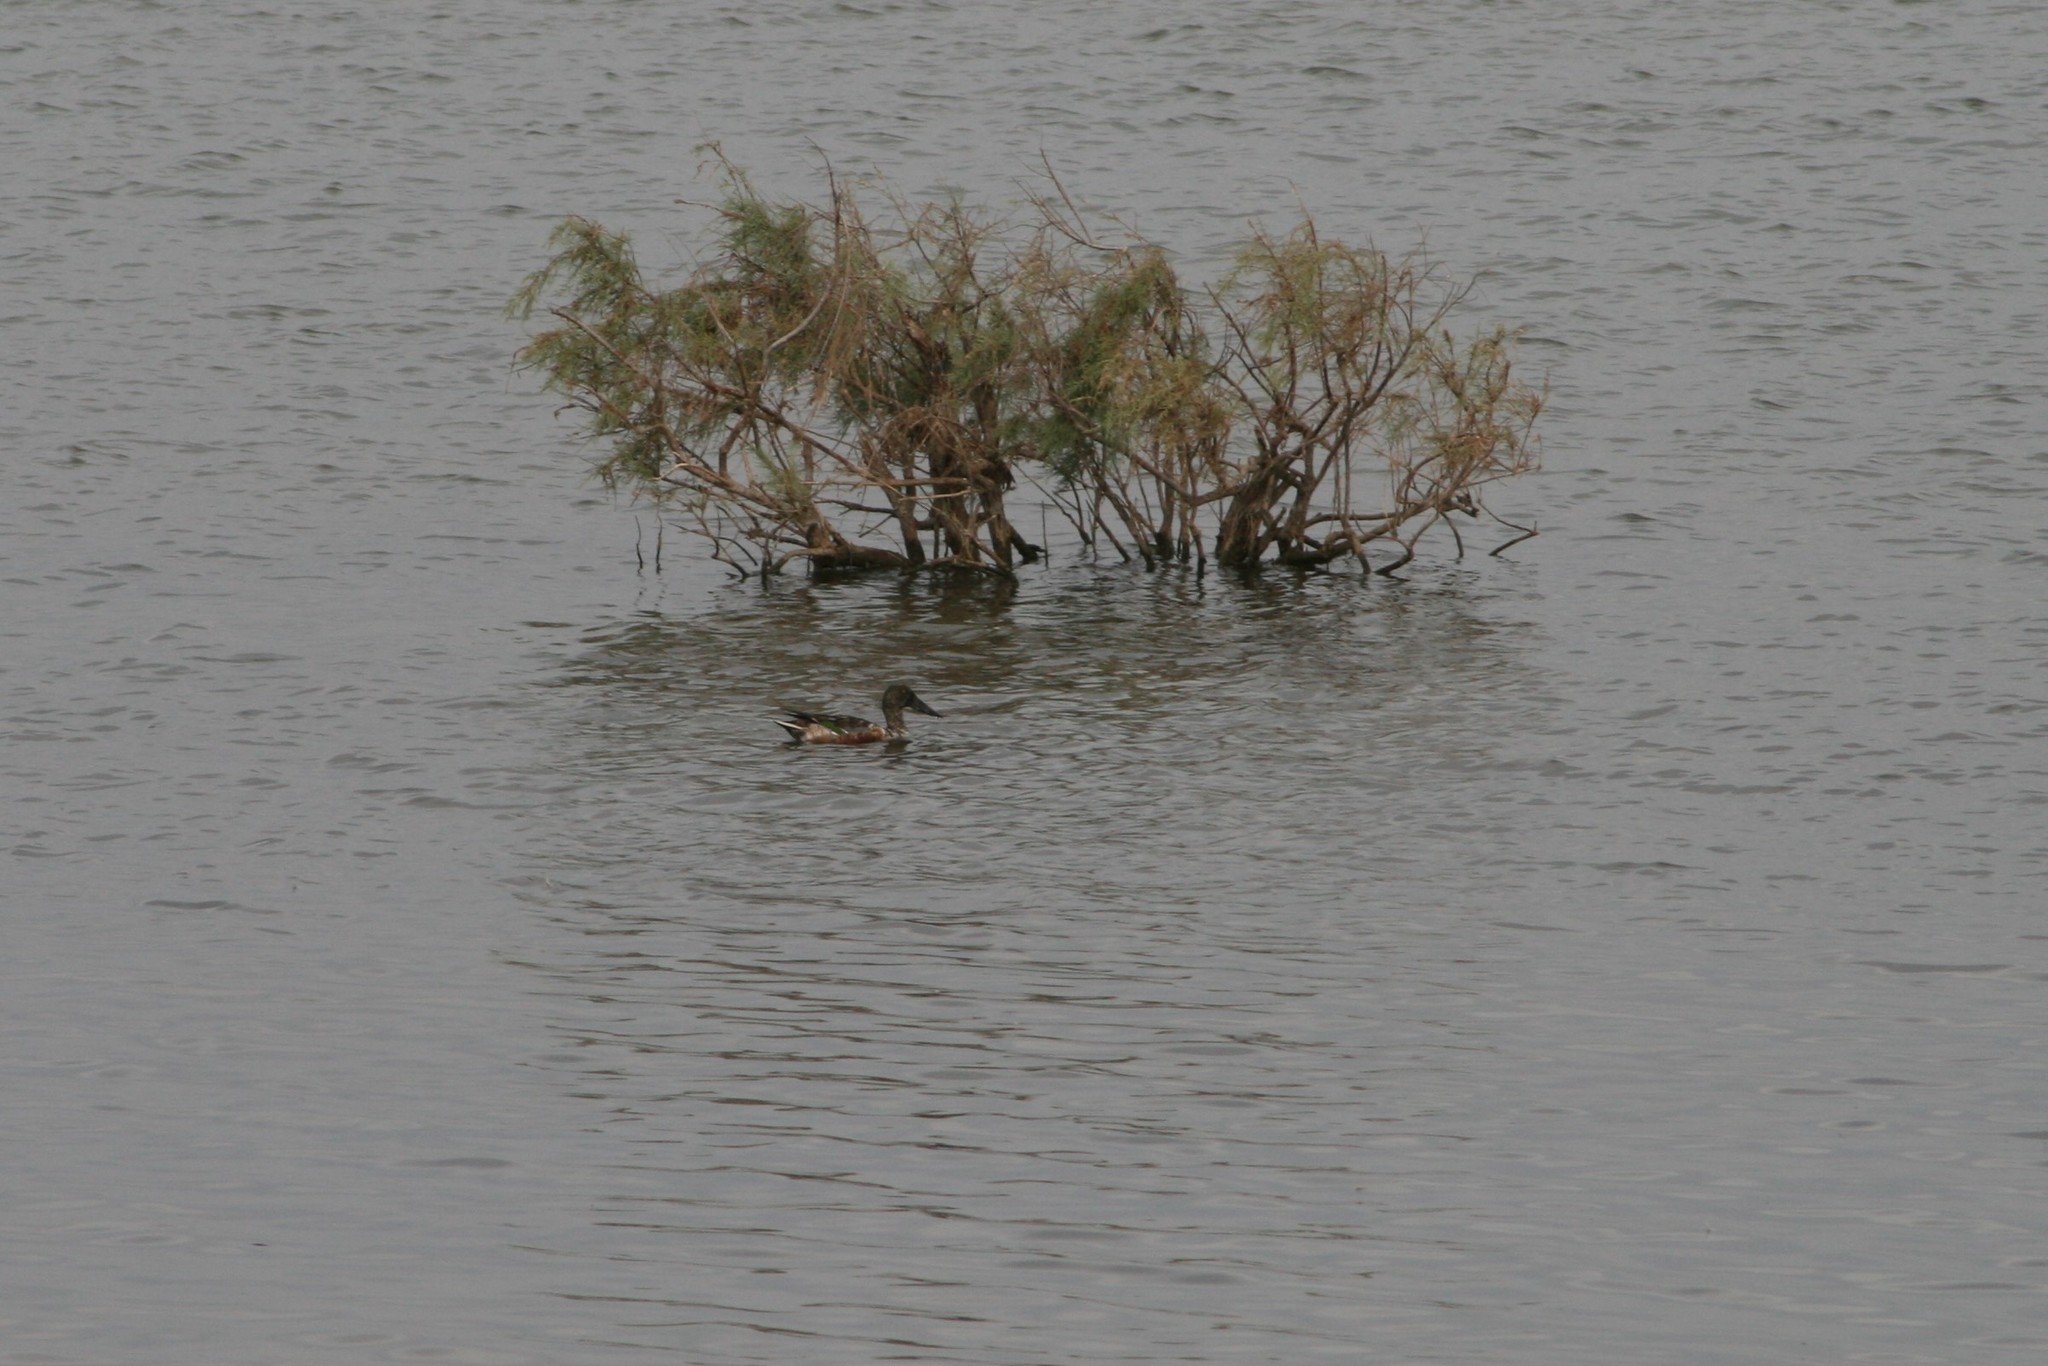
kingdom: Animalia
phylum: Chordata
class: Aves
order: Anseriformes
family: Anatidae
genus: Spatula
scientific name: Spatula clypeata
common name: Northern shoveler
